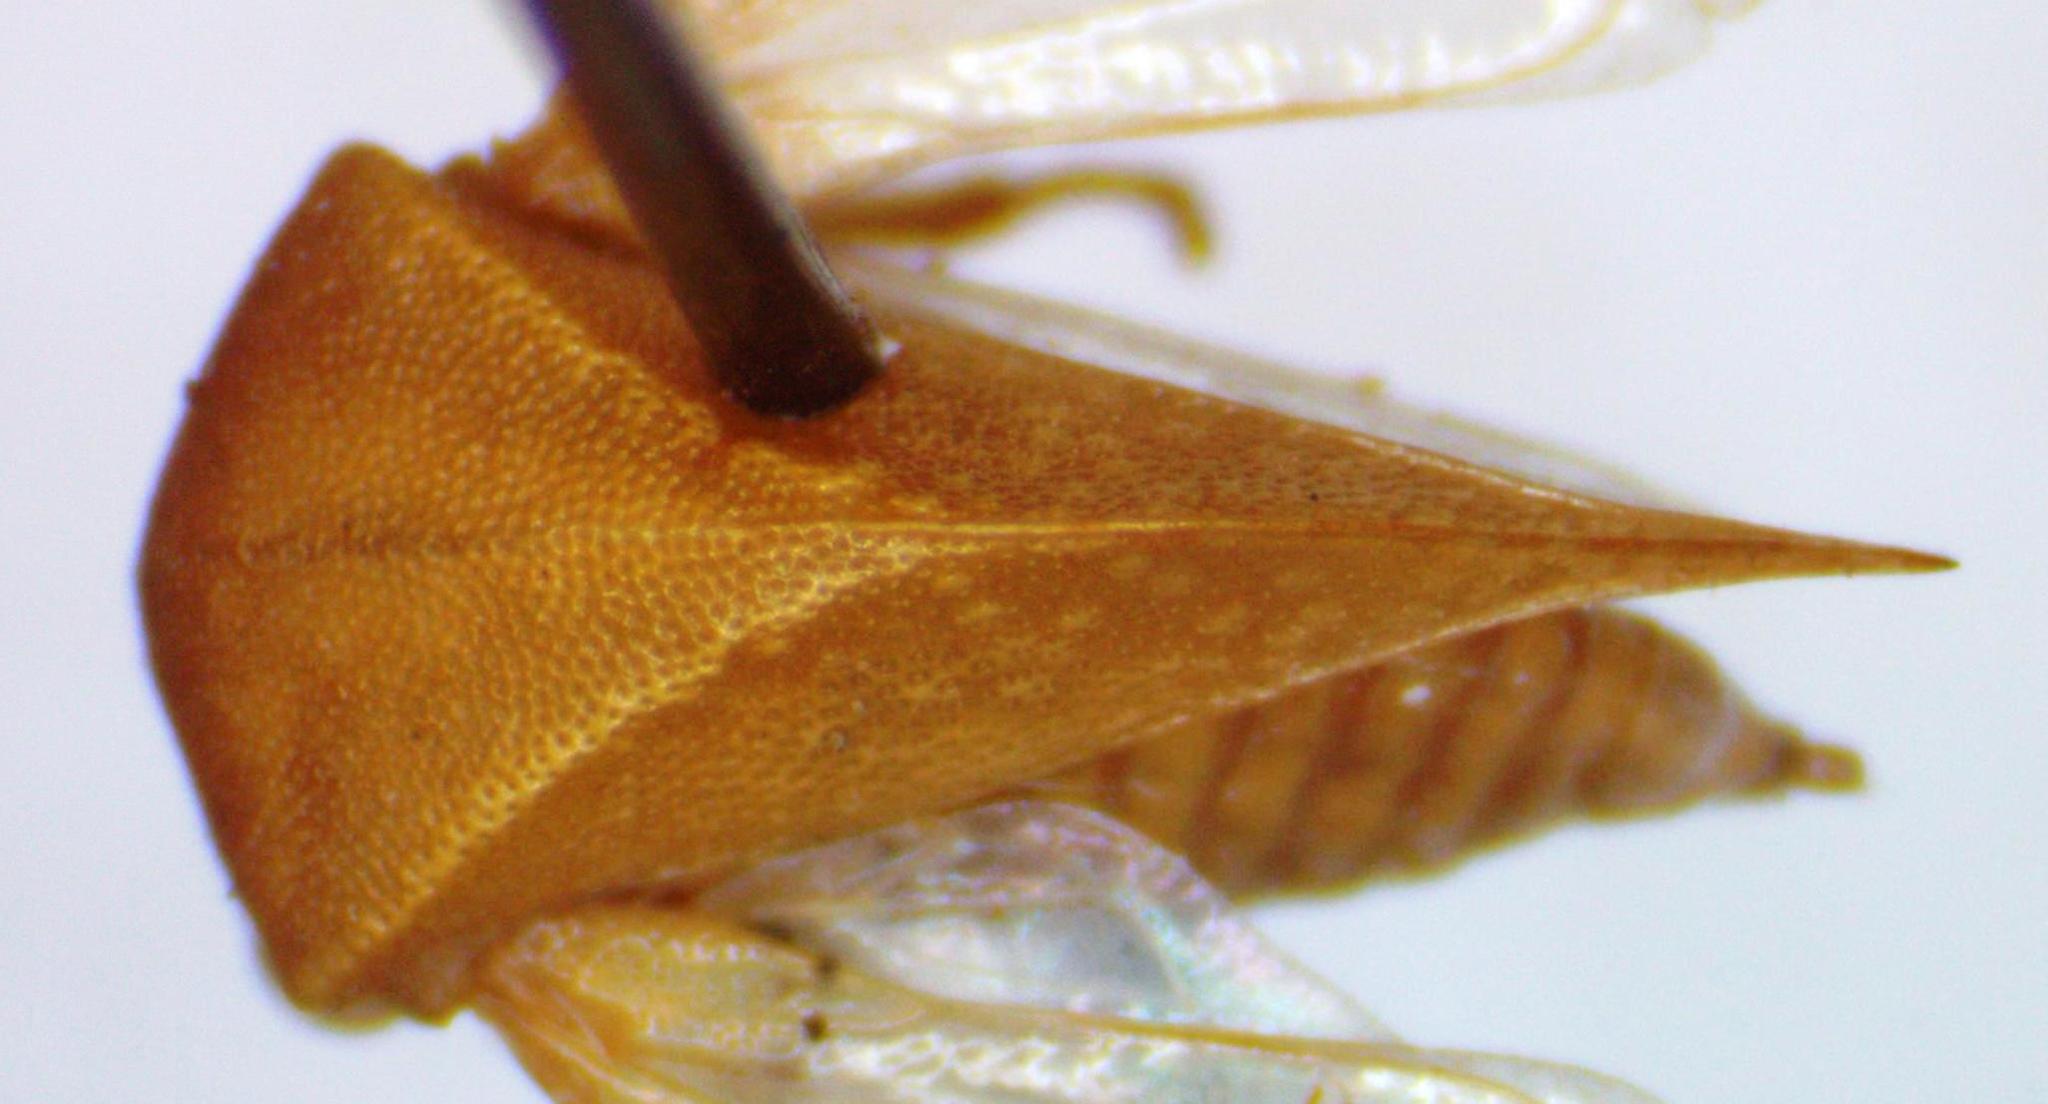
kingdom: Animalia
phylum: Arthropoda
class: Insecta
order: Hemiptera
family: Membracidae
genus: Spissistilus
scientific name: Spissistilus festina
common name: Membracid bug
